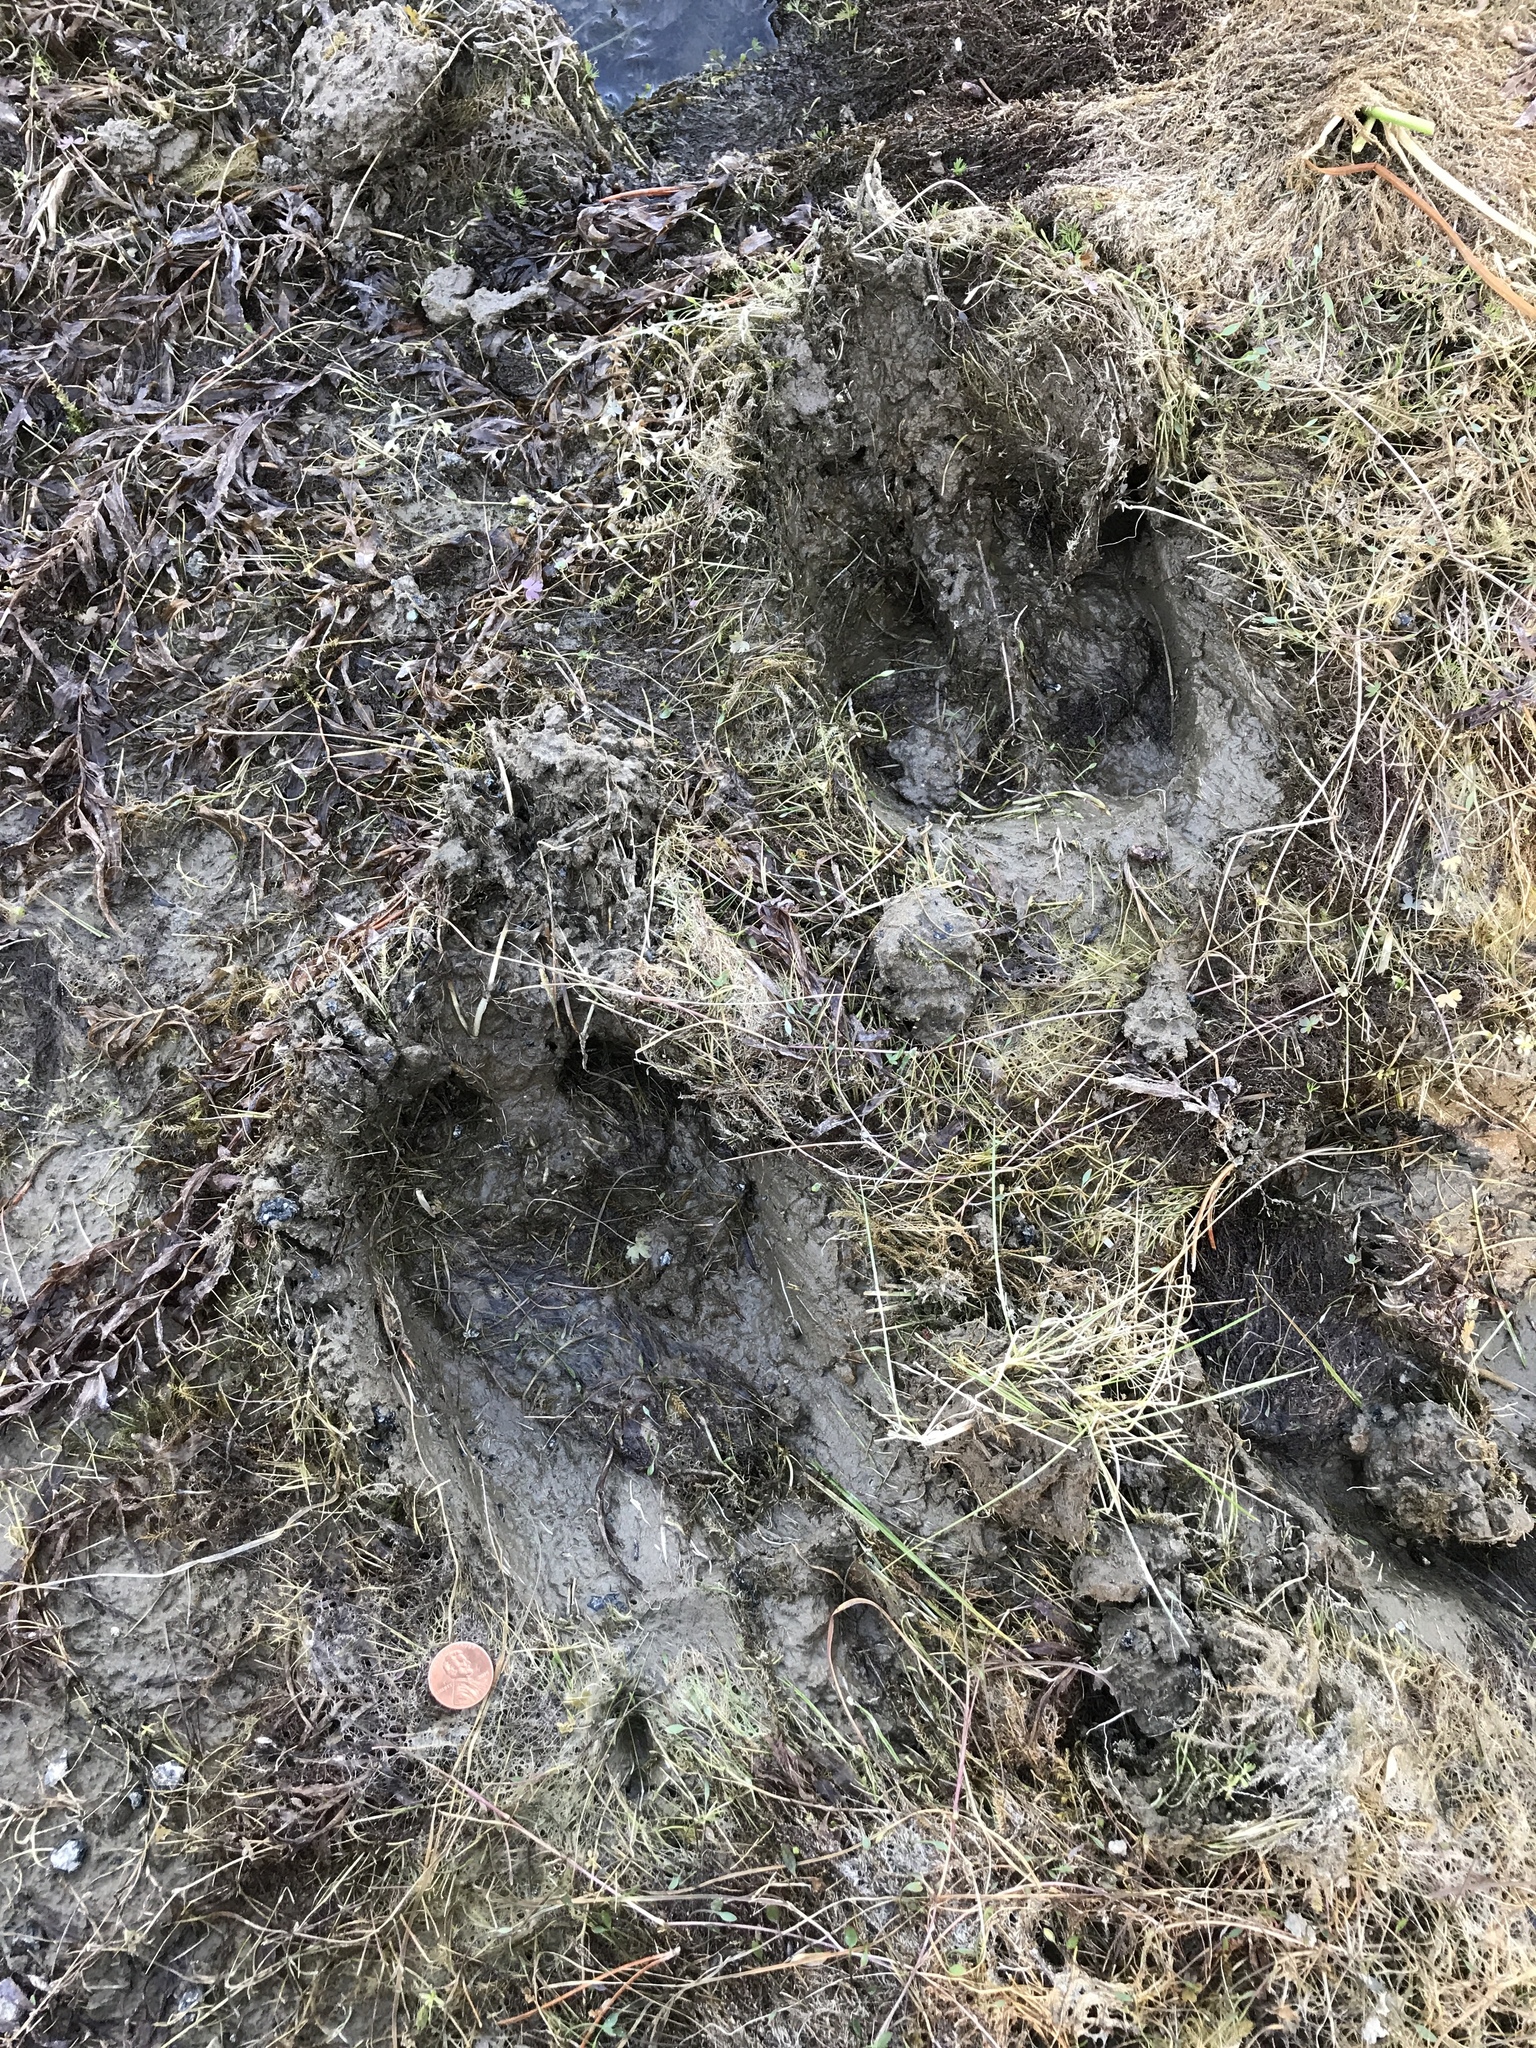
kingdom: Animalia
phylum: Chordata
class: Mammalia
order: Artiodactyla
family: Bovidae
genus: Bison
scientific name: Bison bison
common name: American bison
